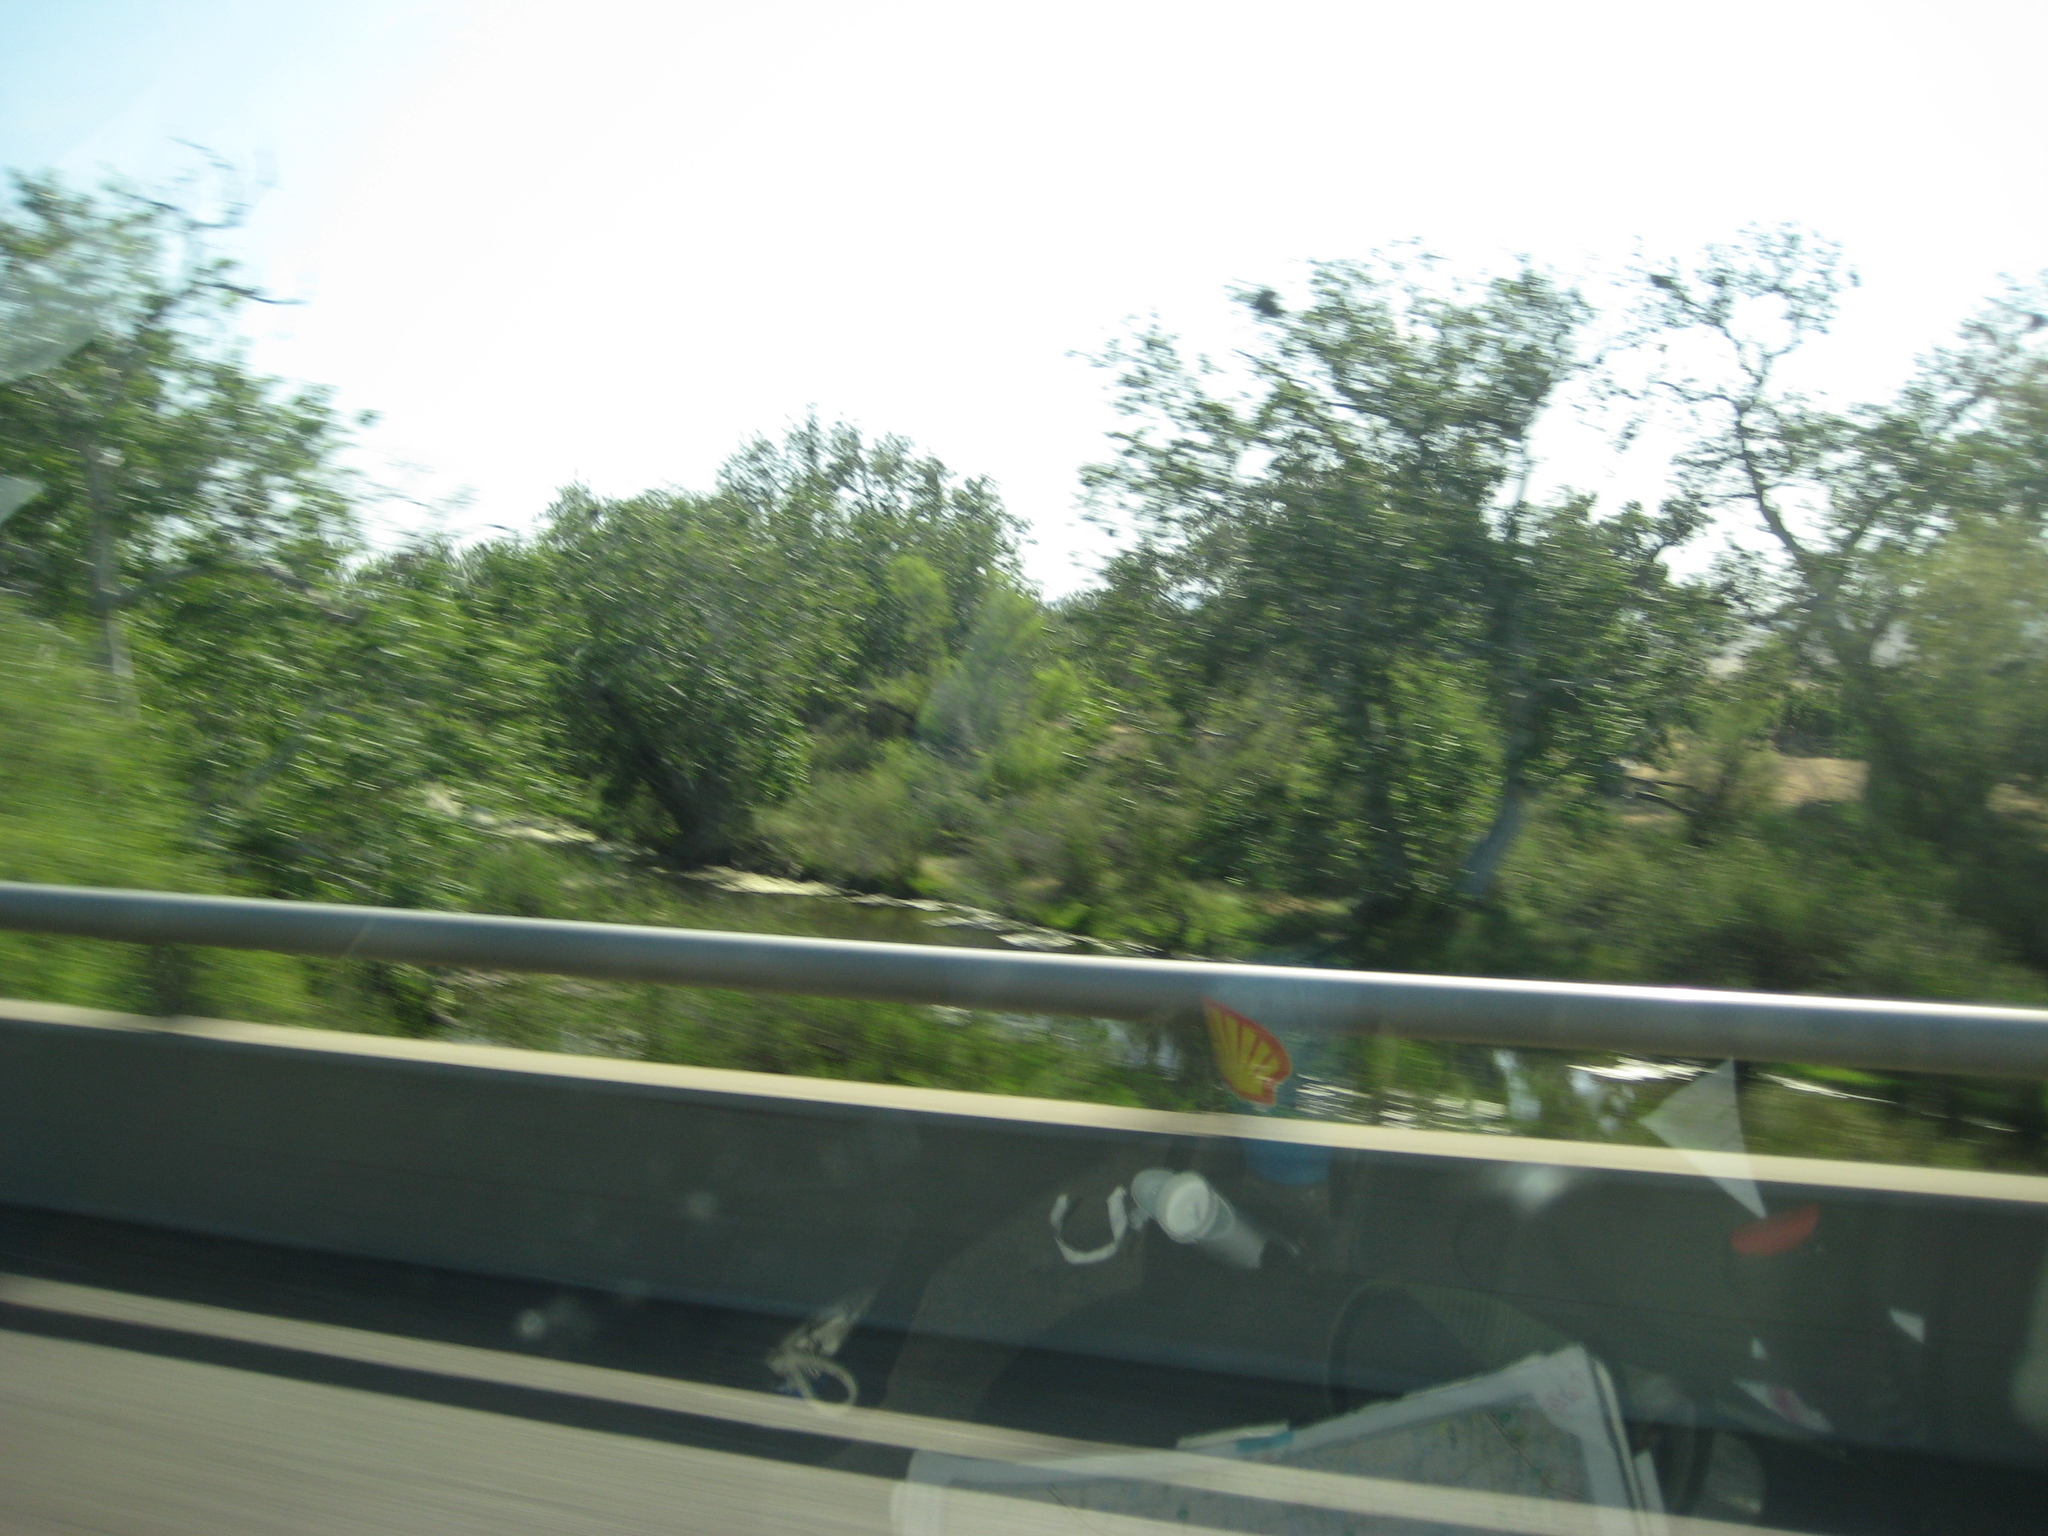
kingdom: Plantae
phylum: Tracheophyta
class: Magnoliopsida
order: Proteales
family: Platanaceae
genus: Platanus
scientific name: Platanus racemosa
